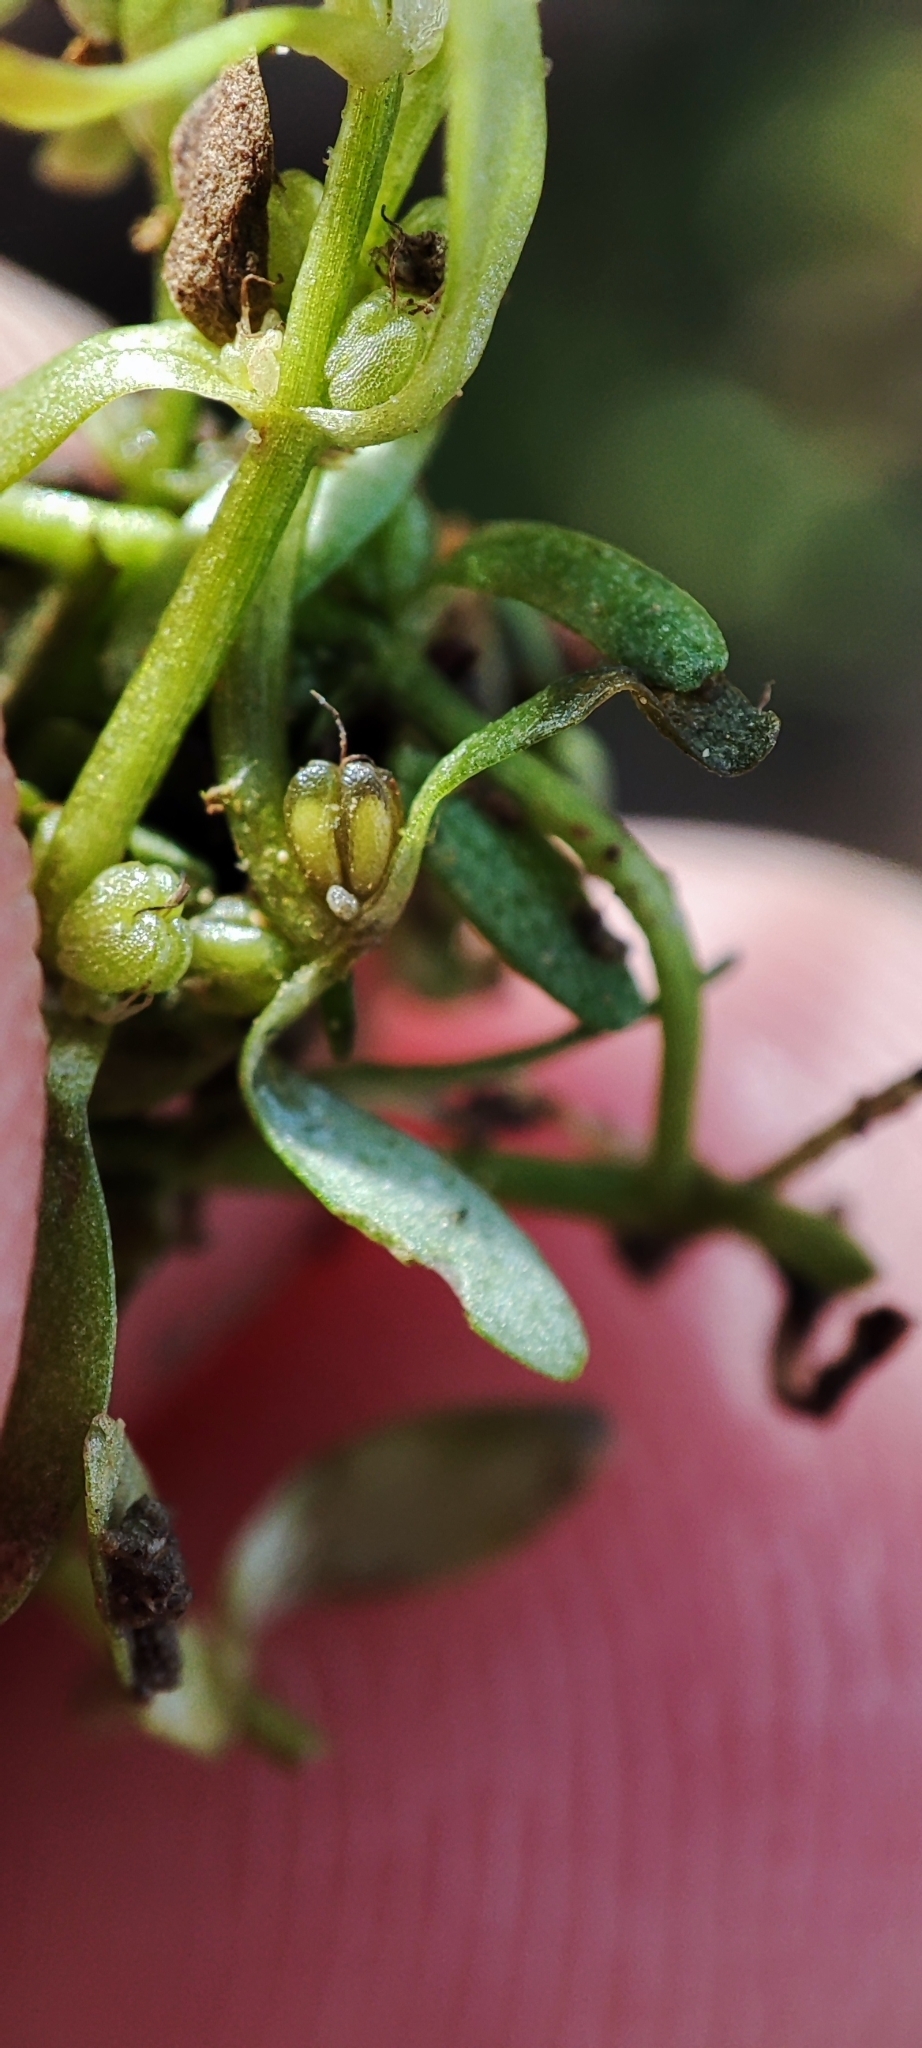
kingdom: Plantae
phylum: Tracheophyta
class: Magnoliopsida
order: Lamiales
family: Plantaginaceae
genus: Callitriche
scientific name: Callitriche palustris
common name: Spring water-starwort
